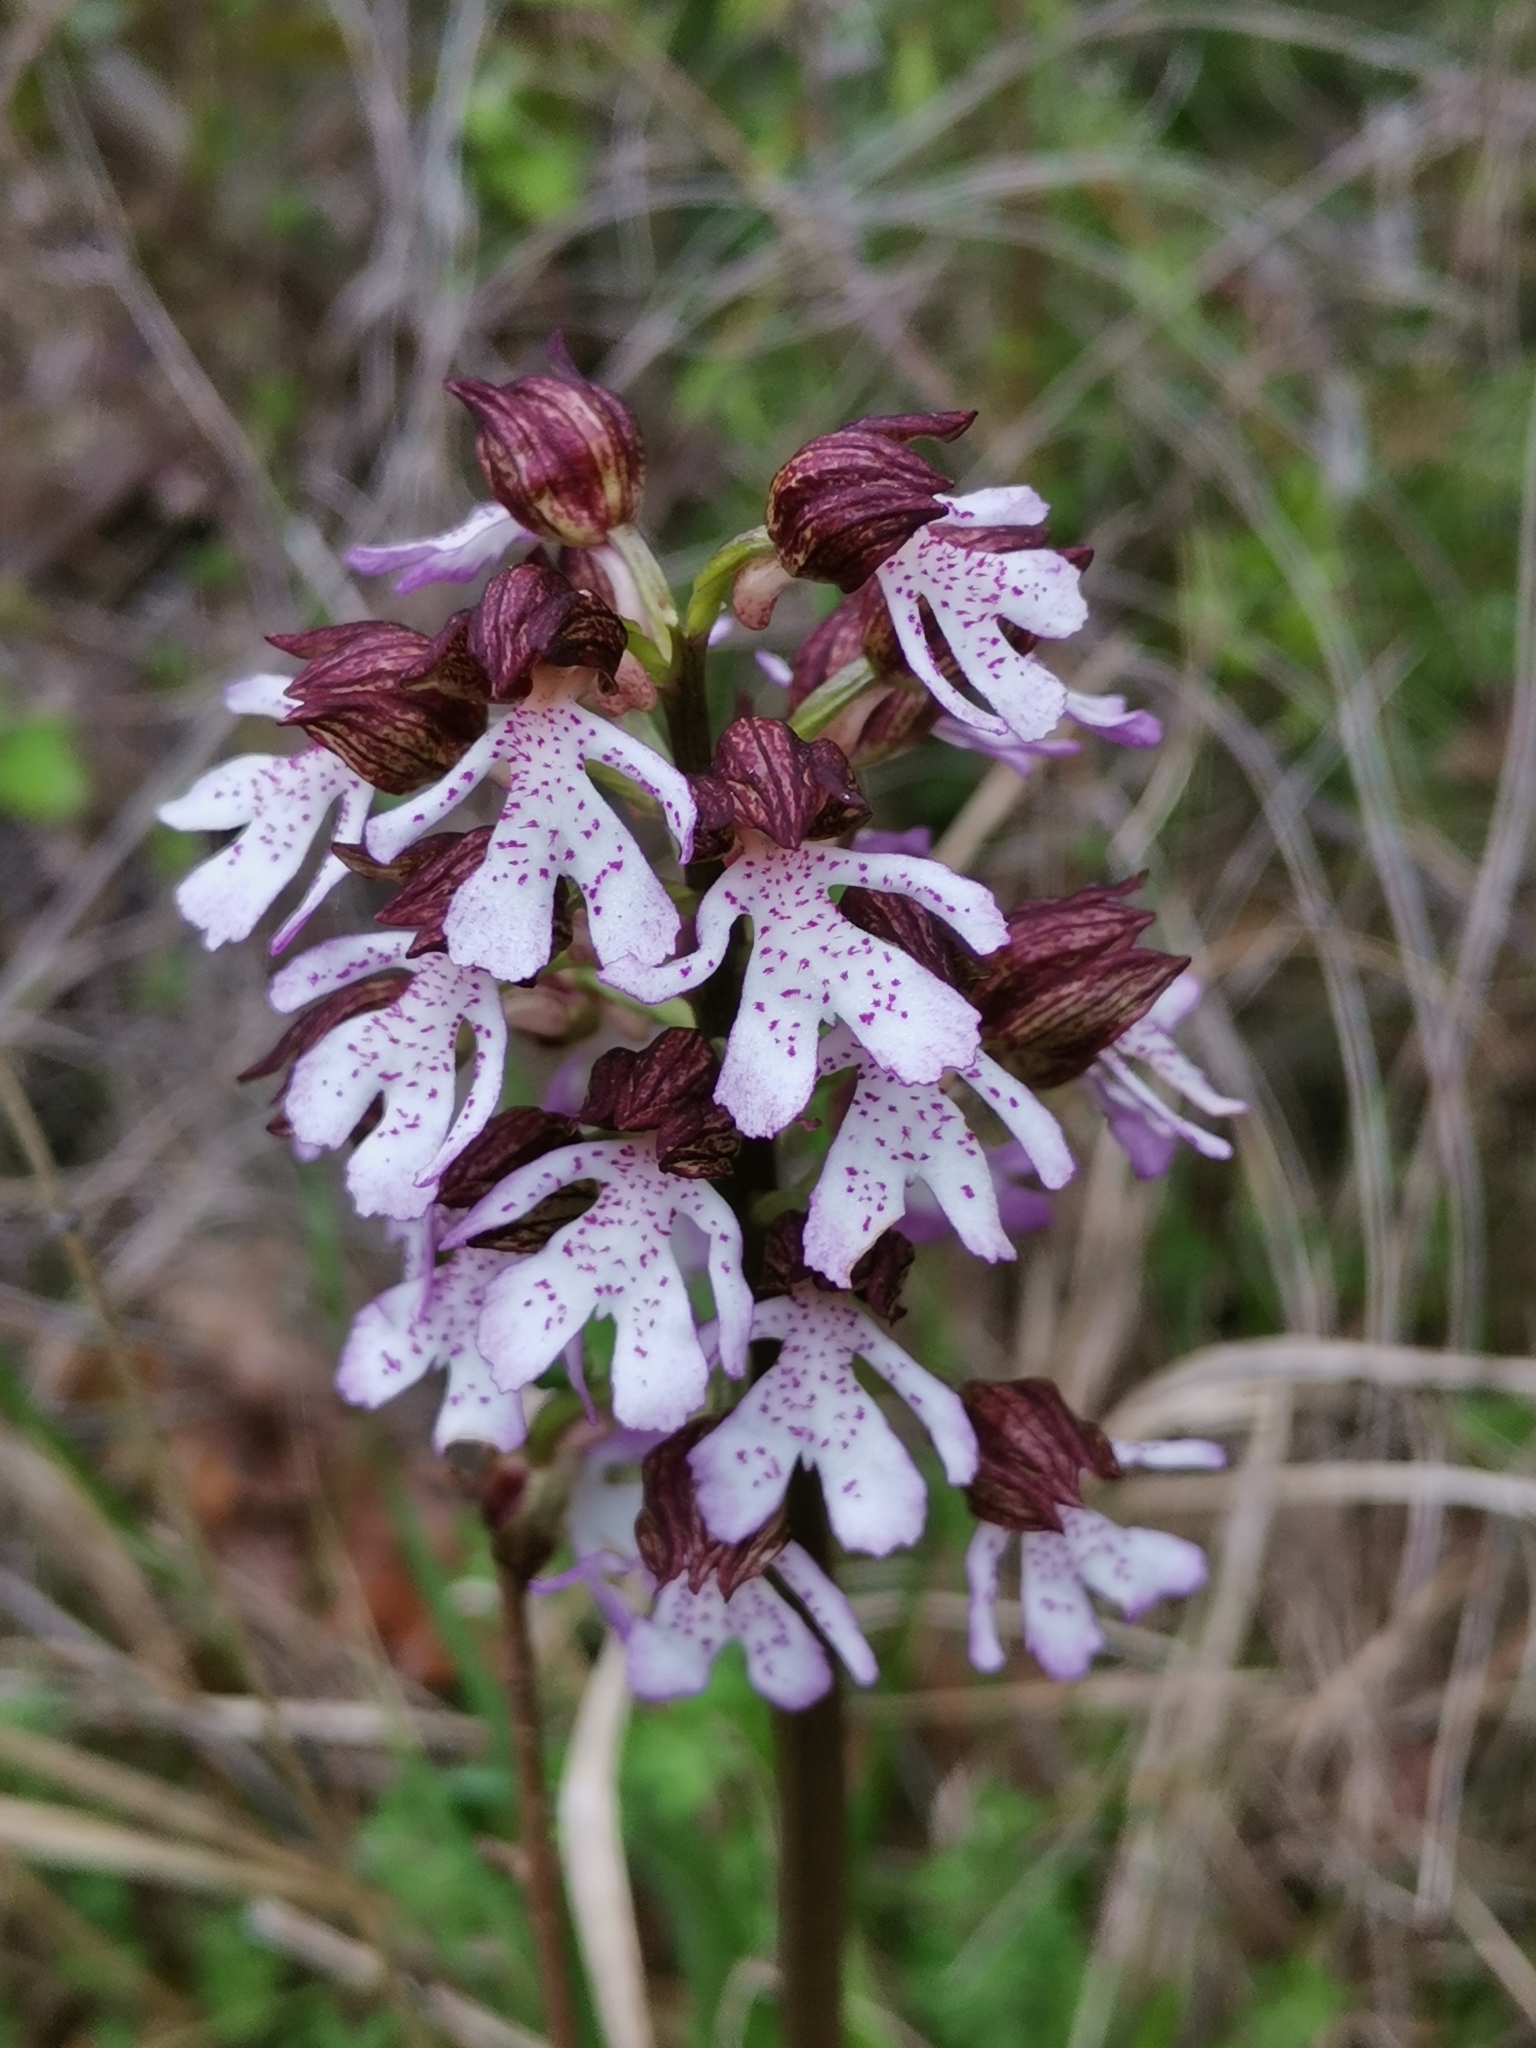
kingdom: Plantae
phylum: Tracheophyta
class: Liliopsida
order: Asparagales
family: Orchidaceae
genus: Orchis
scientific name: Orchis purpurea
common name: Lady orchid
